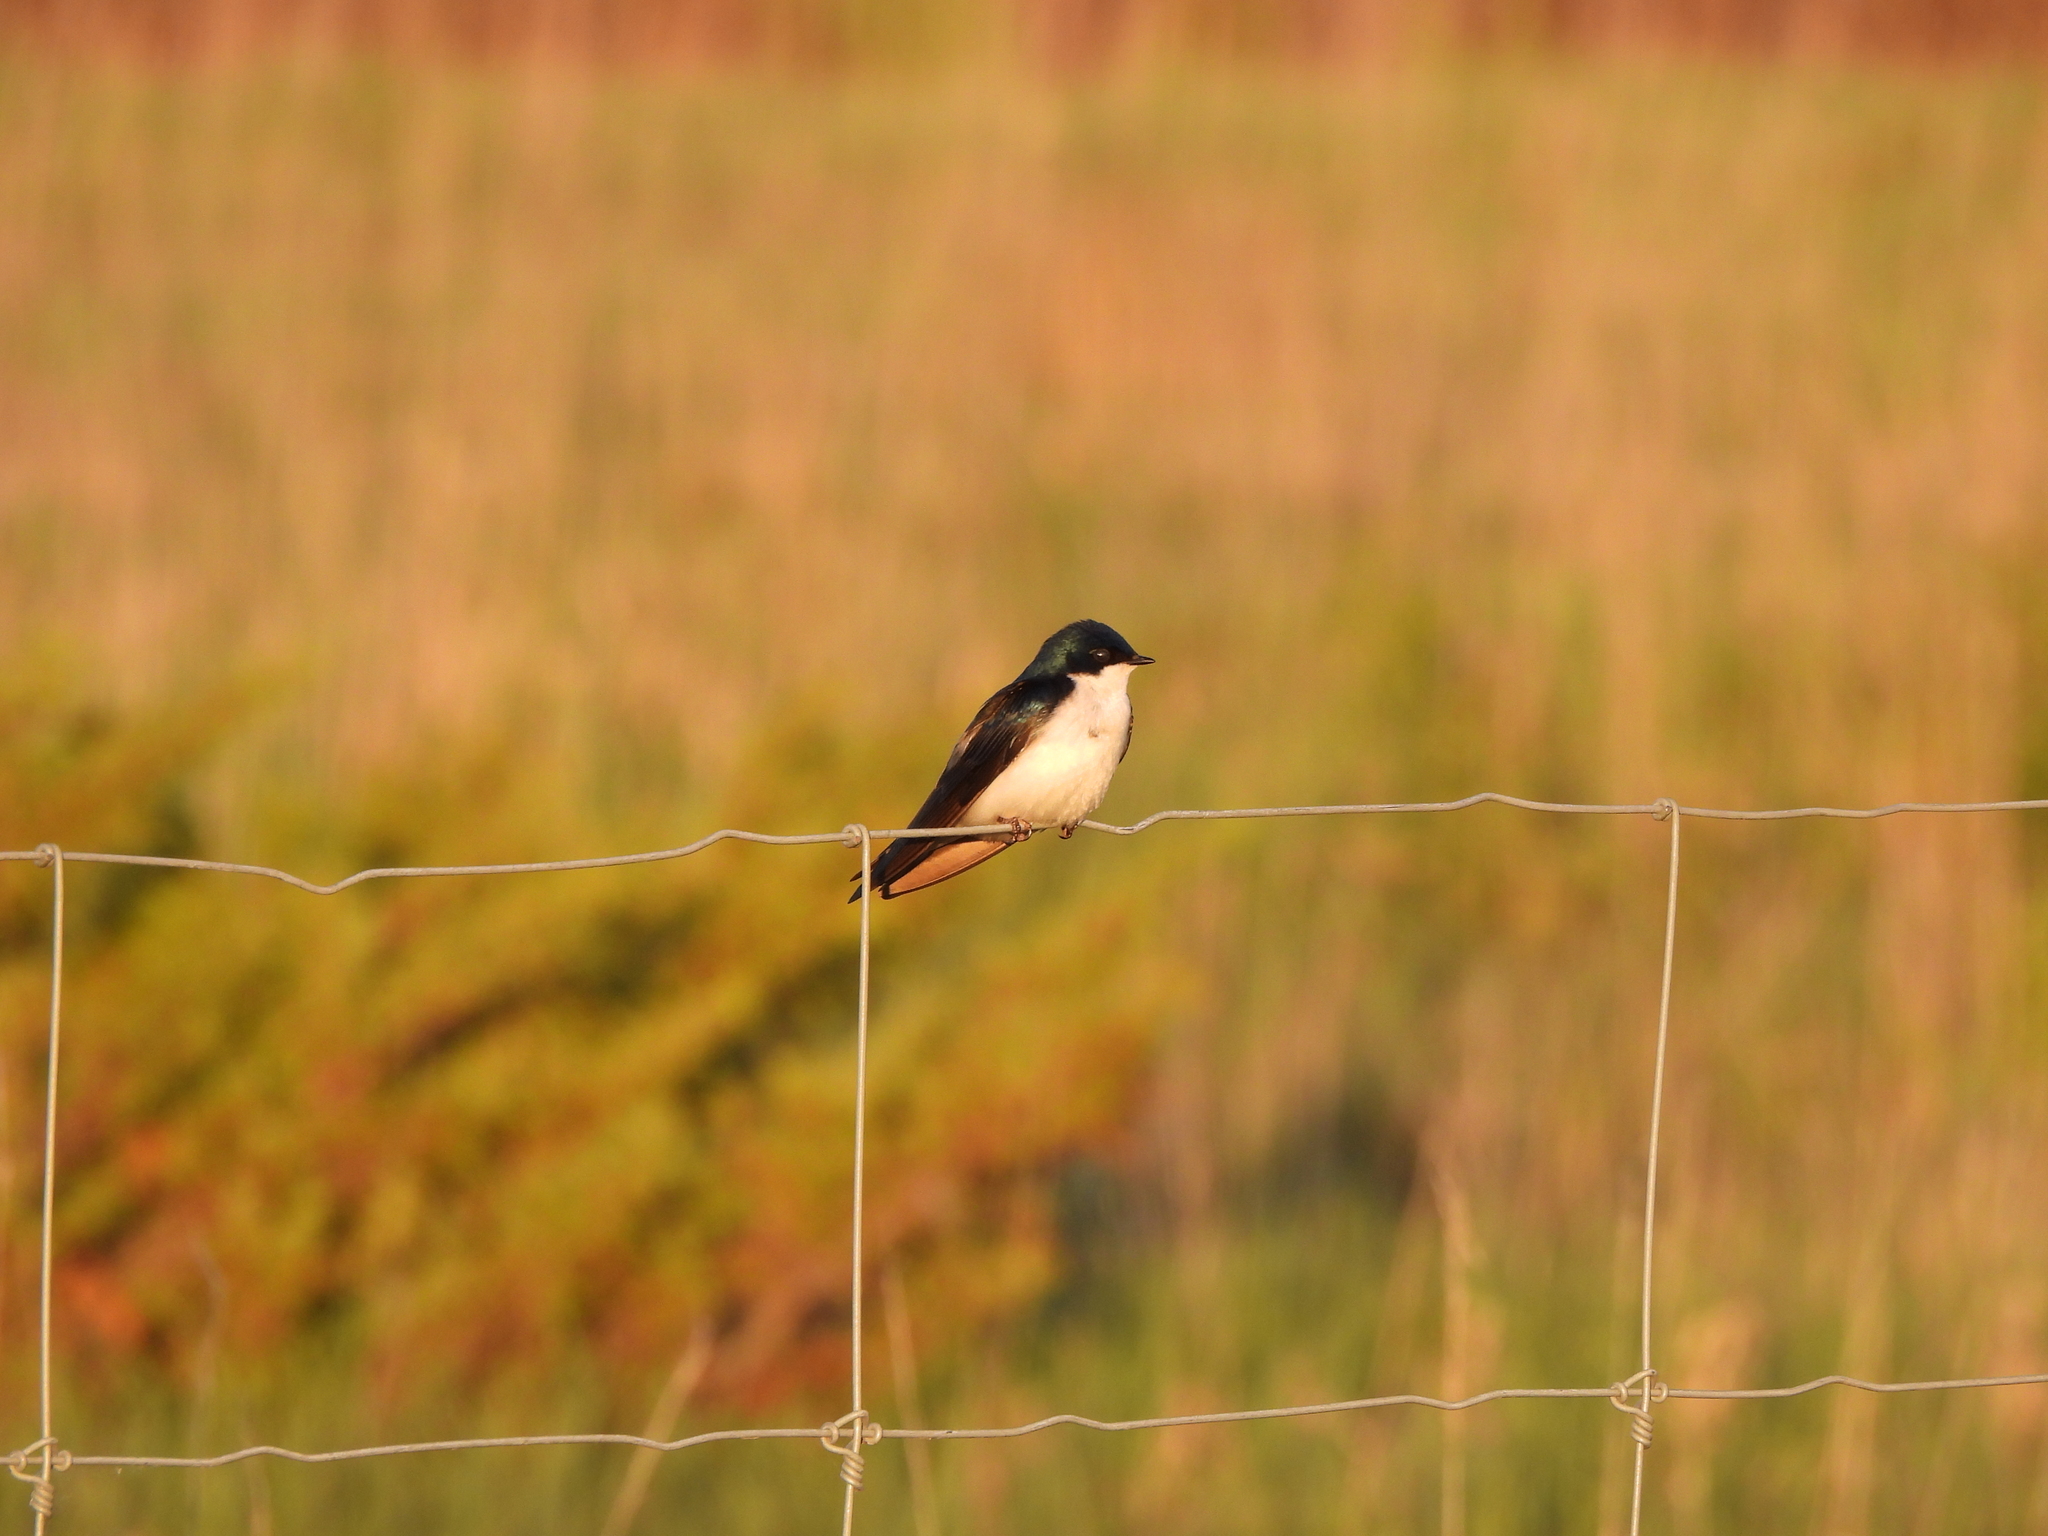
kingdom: Animalia
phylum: Chordata
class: Aves
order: Passeriformes
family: Hirundinidae
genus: Tachycineta
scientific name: Tachycineta bicolor
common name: Tree swallow
